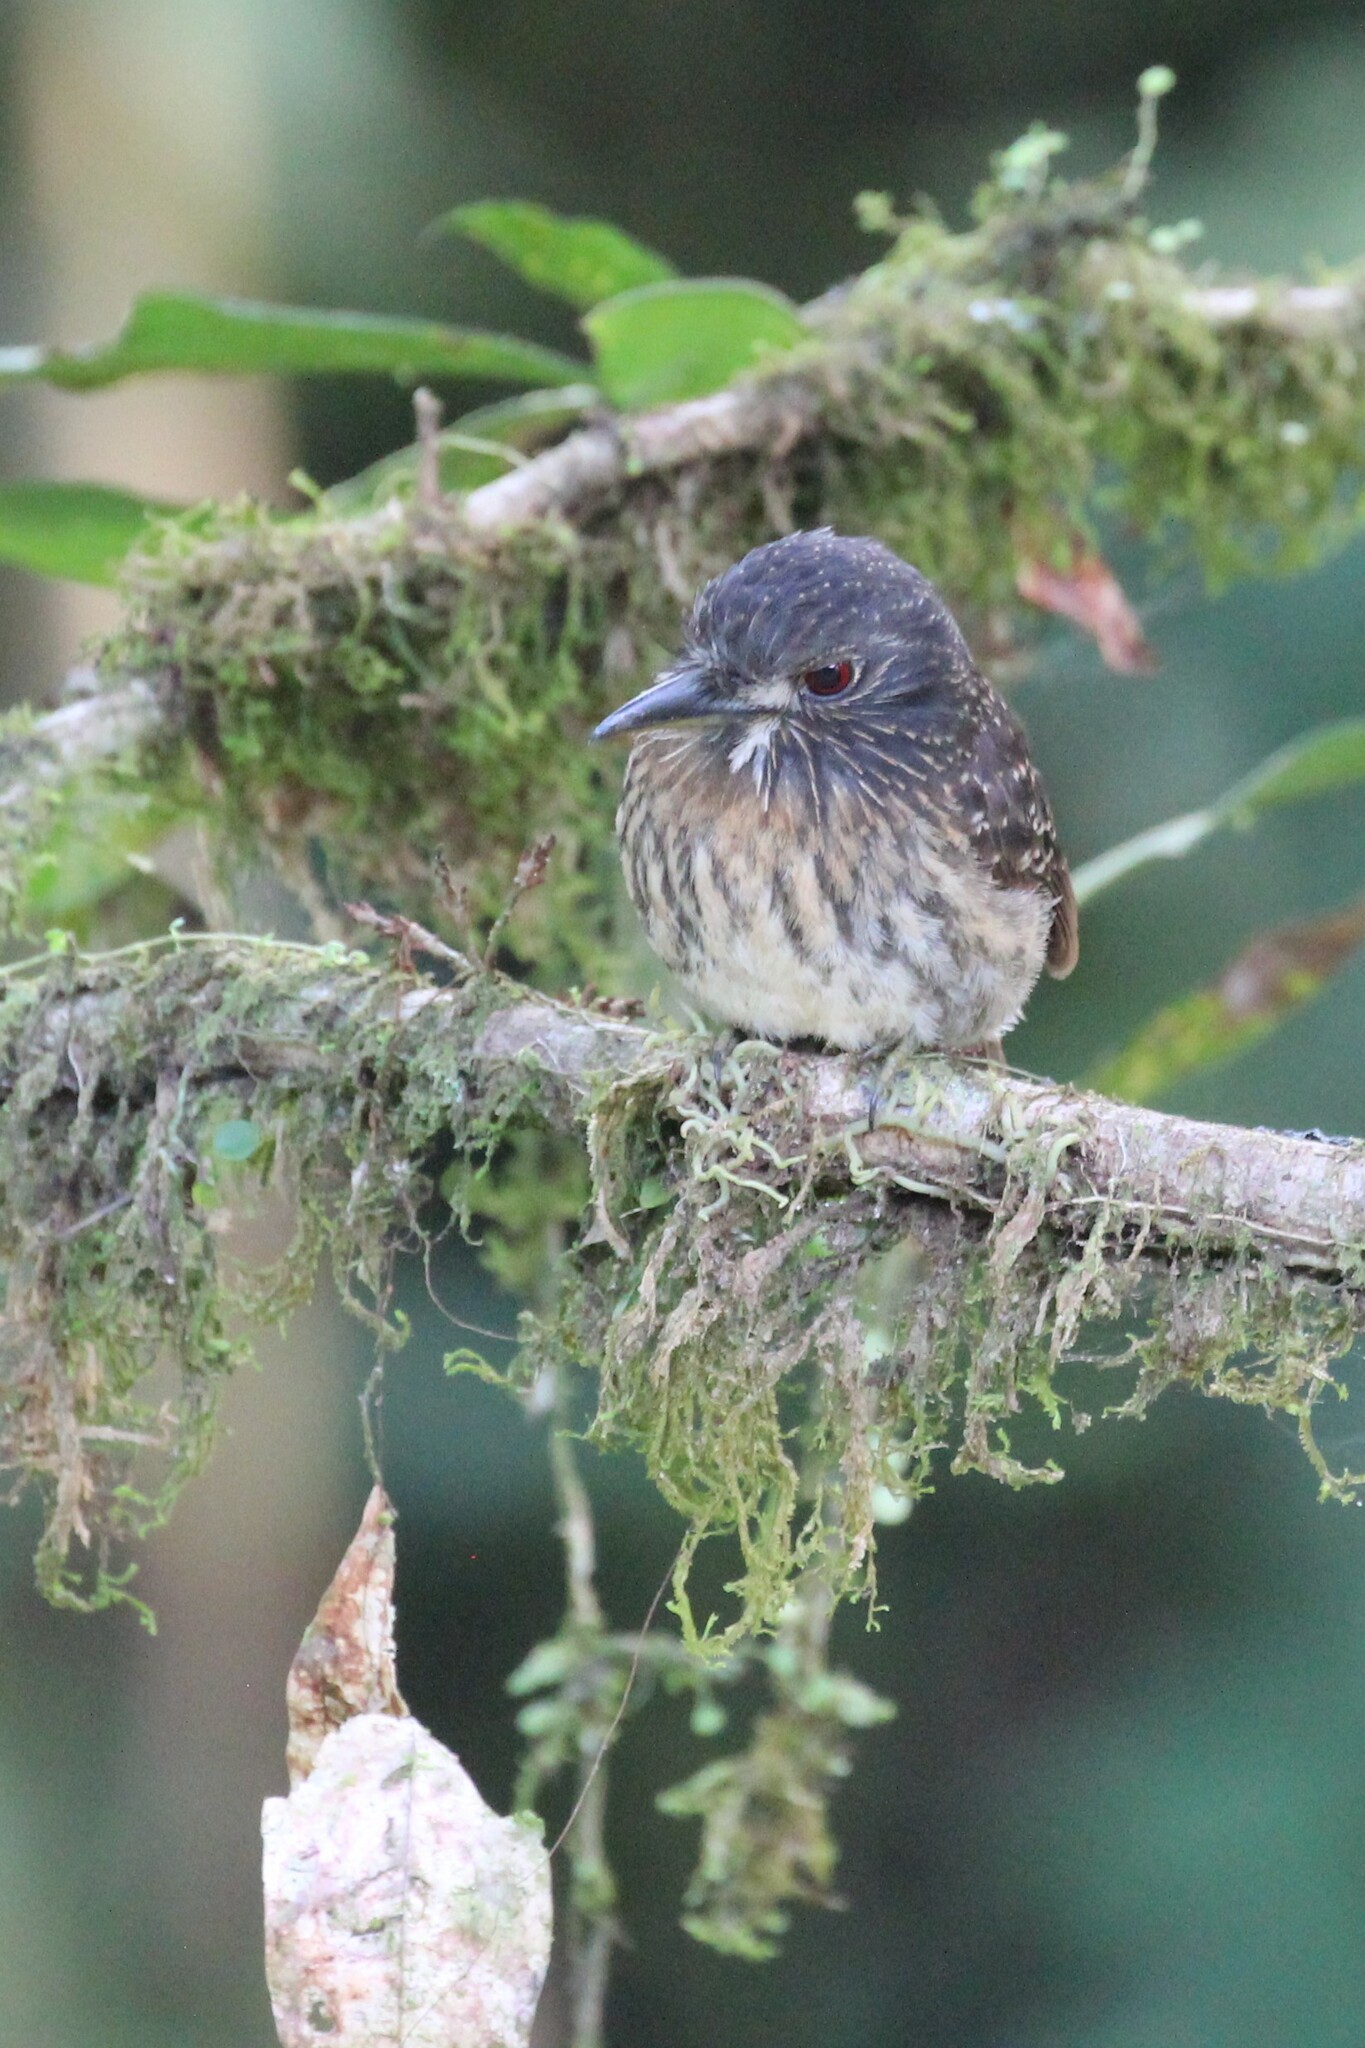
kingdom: Animalia
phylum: Chordata
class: Aves
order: Piciformes
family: Bucconidae
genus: Malacoptila
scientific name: Malacoptila panamensis
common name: White-whiskered puffbird
